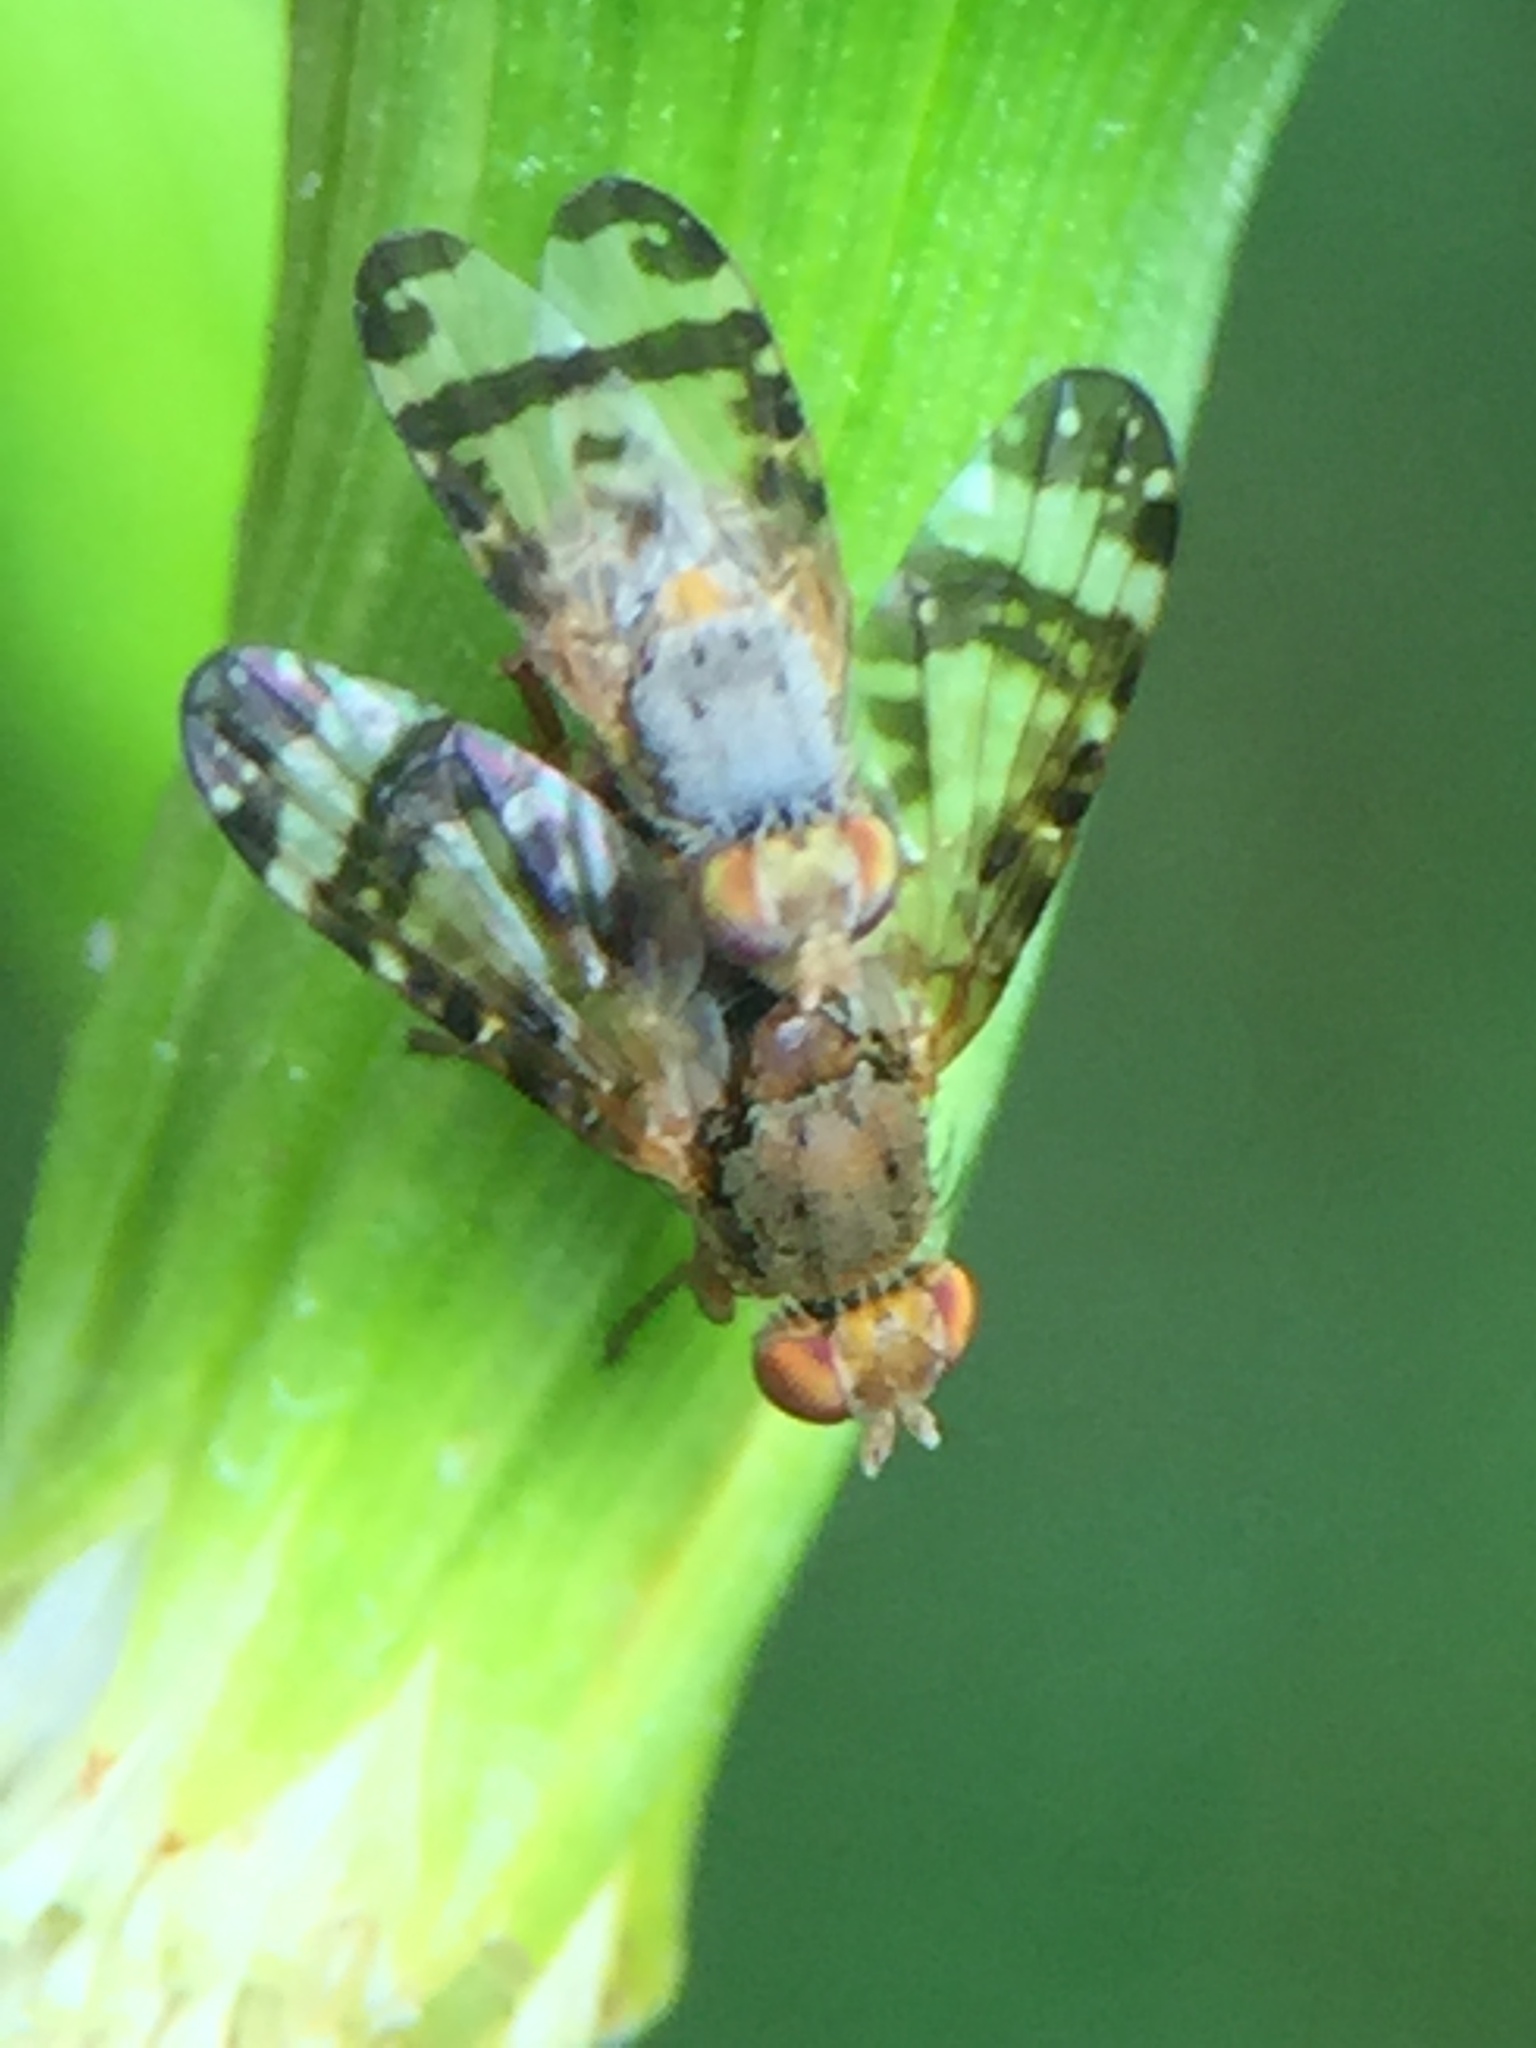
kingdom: Animalia
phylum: Arthropoda
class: Insecta
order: Diptera
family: Tephritidae
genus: Sphenella
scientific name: Sphenella ruficeps
